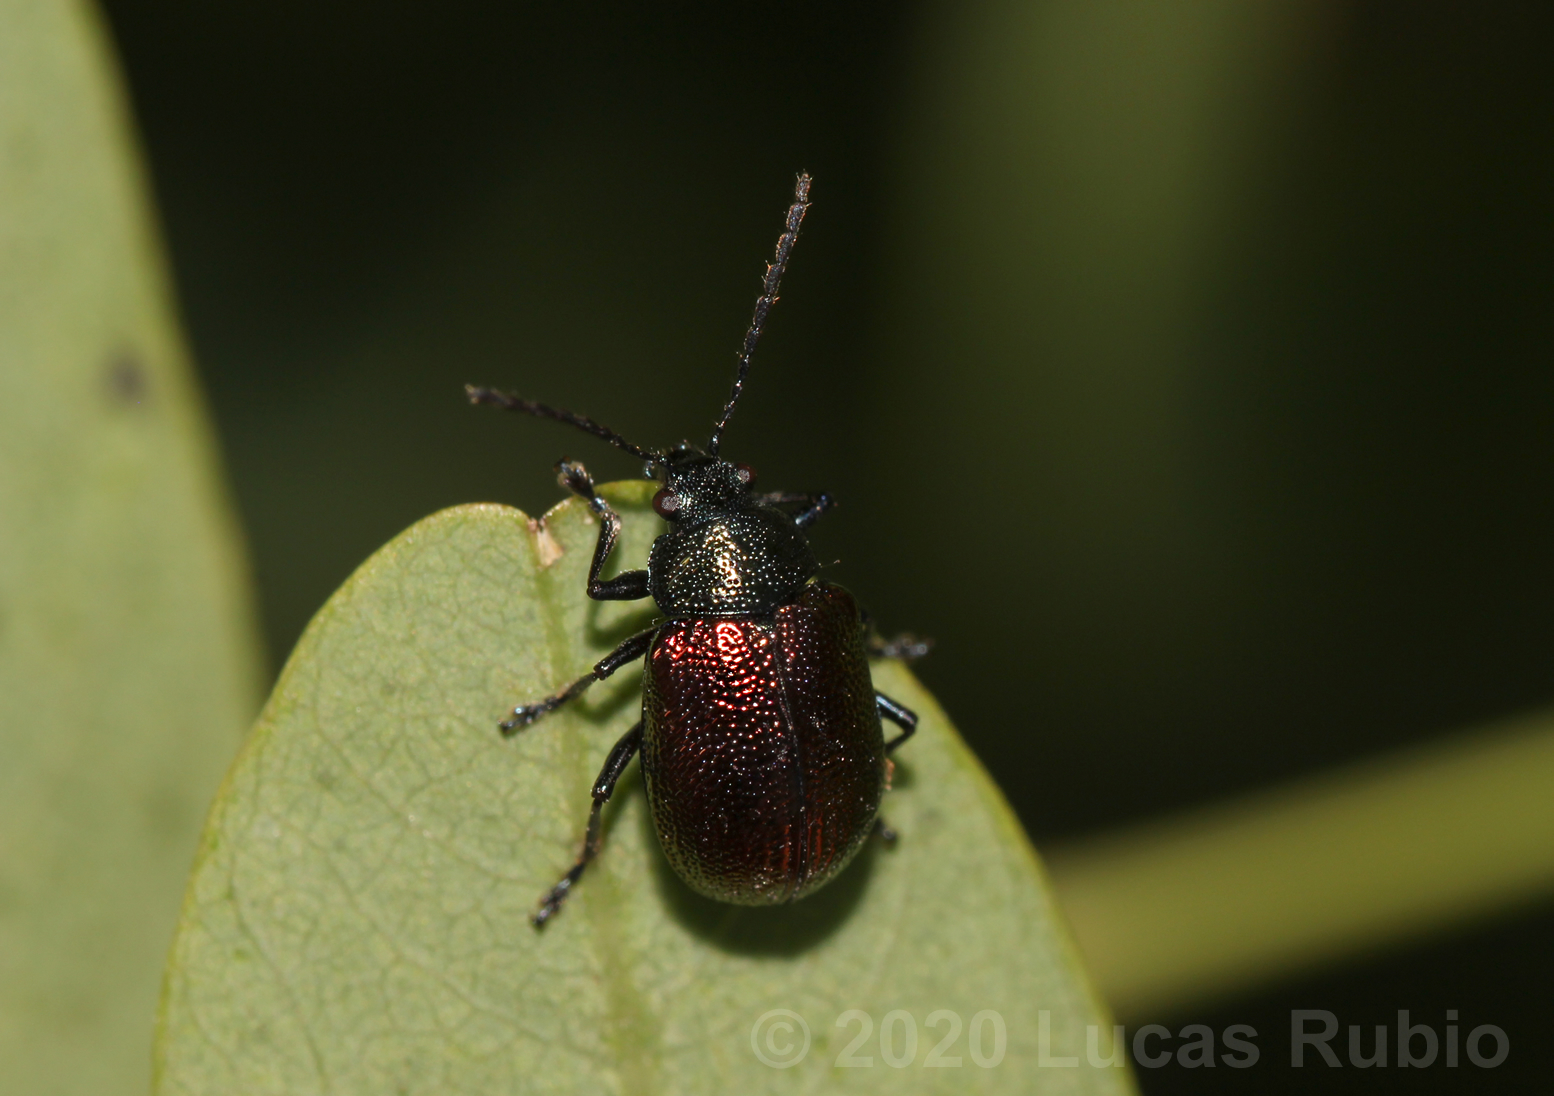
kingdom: Animalia
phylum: Arthropoda
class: Insecta
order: Coleoptera
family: Chrysomelidae
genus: Freudeita
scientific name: Freudeita
